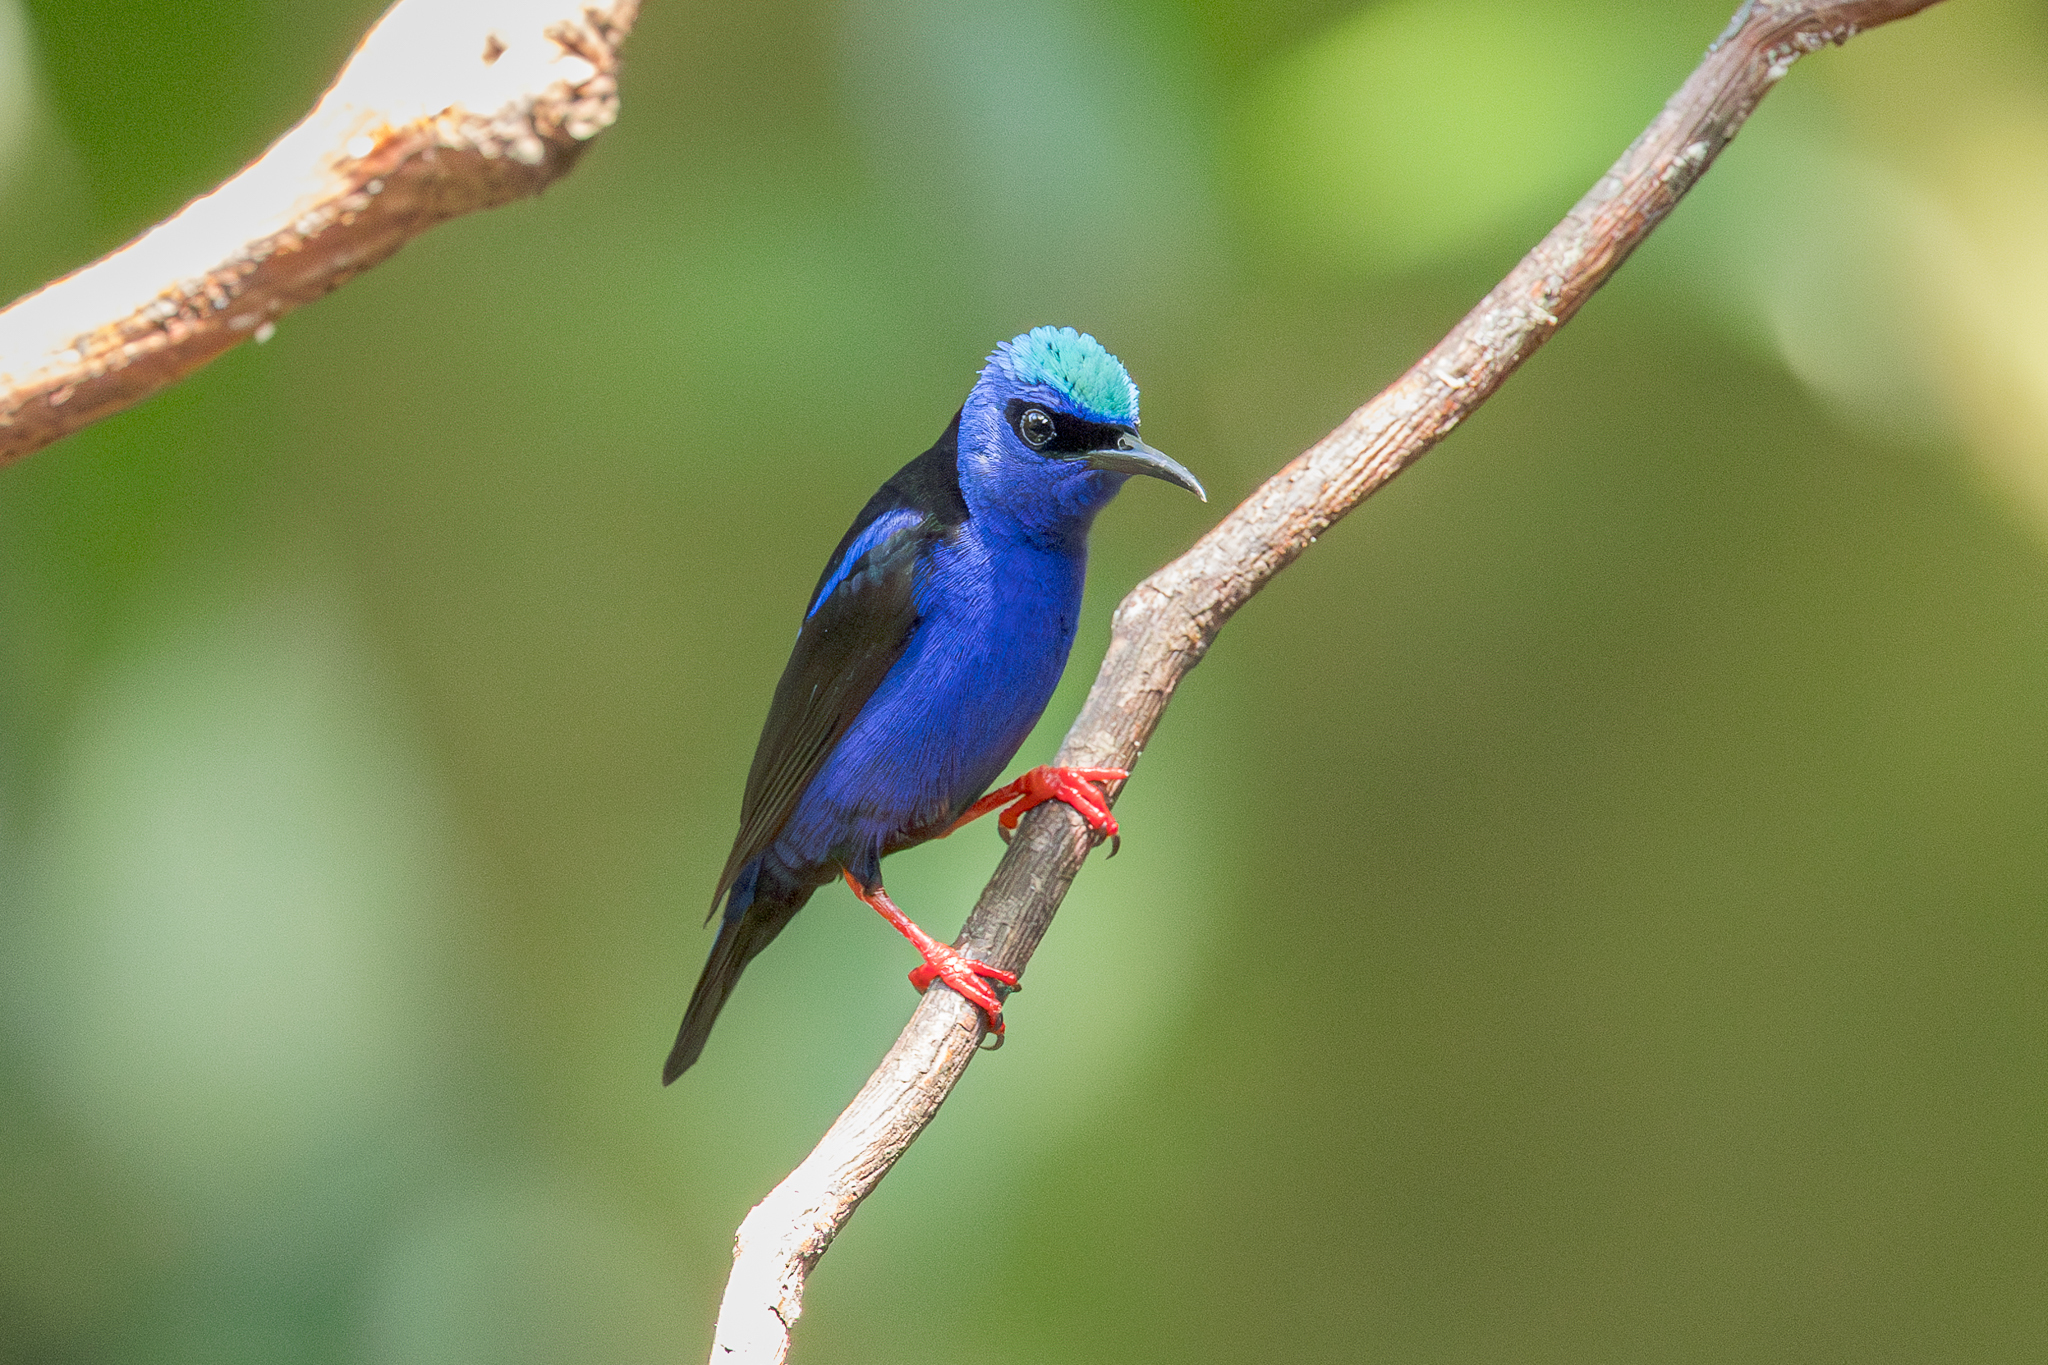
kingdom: Animalia
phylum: Chordata
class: Aves
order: Passeriformes
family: Thraupidae
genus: Cyanerpes
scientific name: Cyanerpes cyaneus
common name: Red-legged honeycreeper
